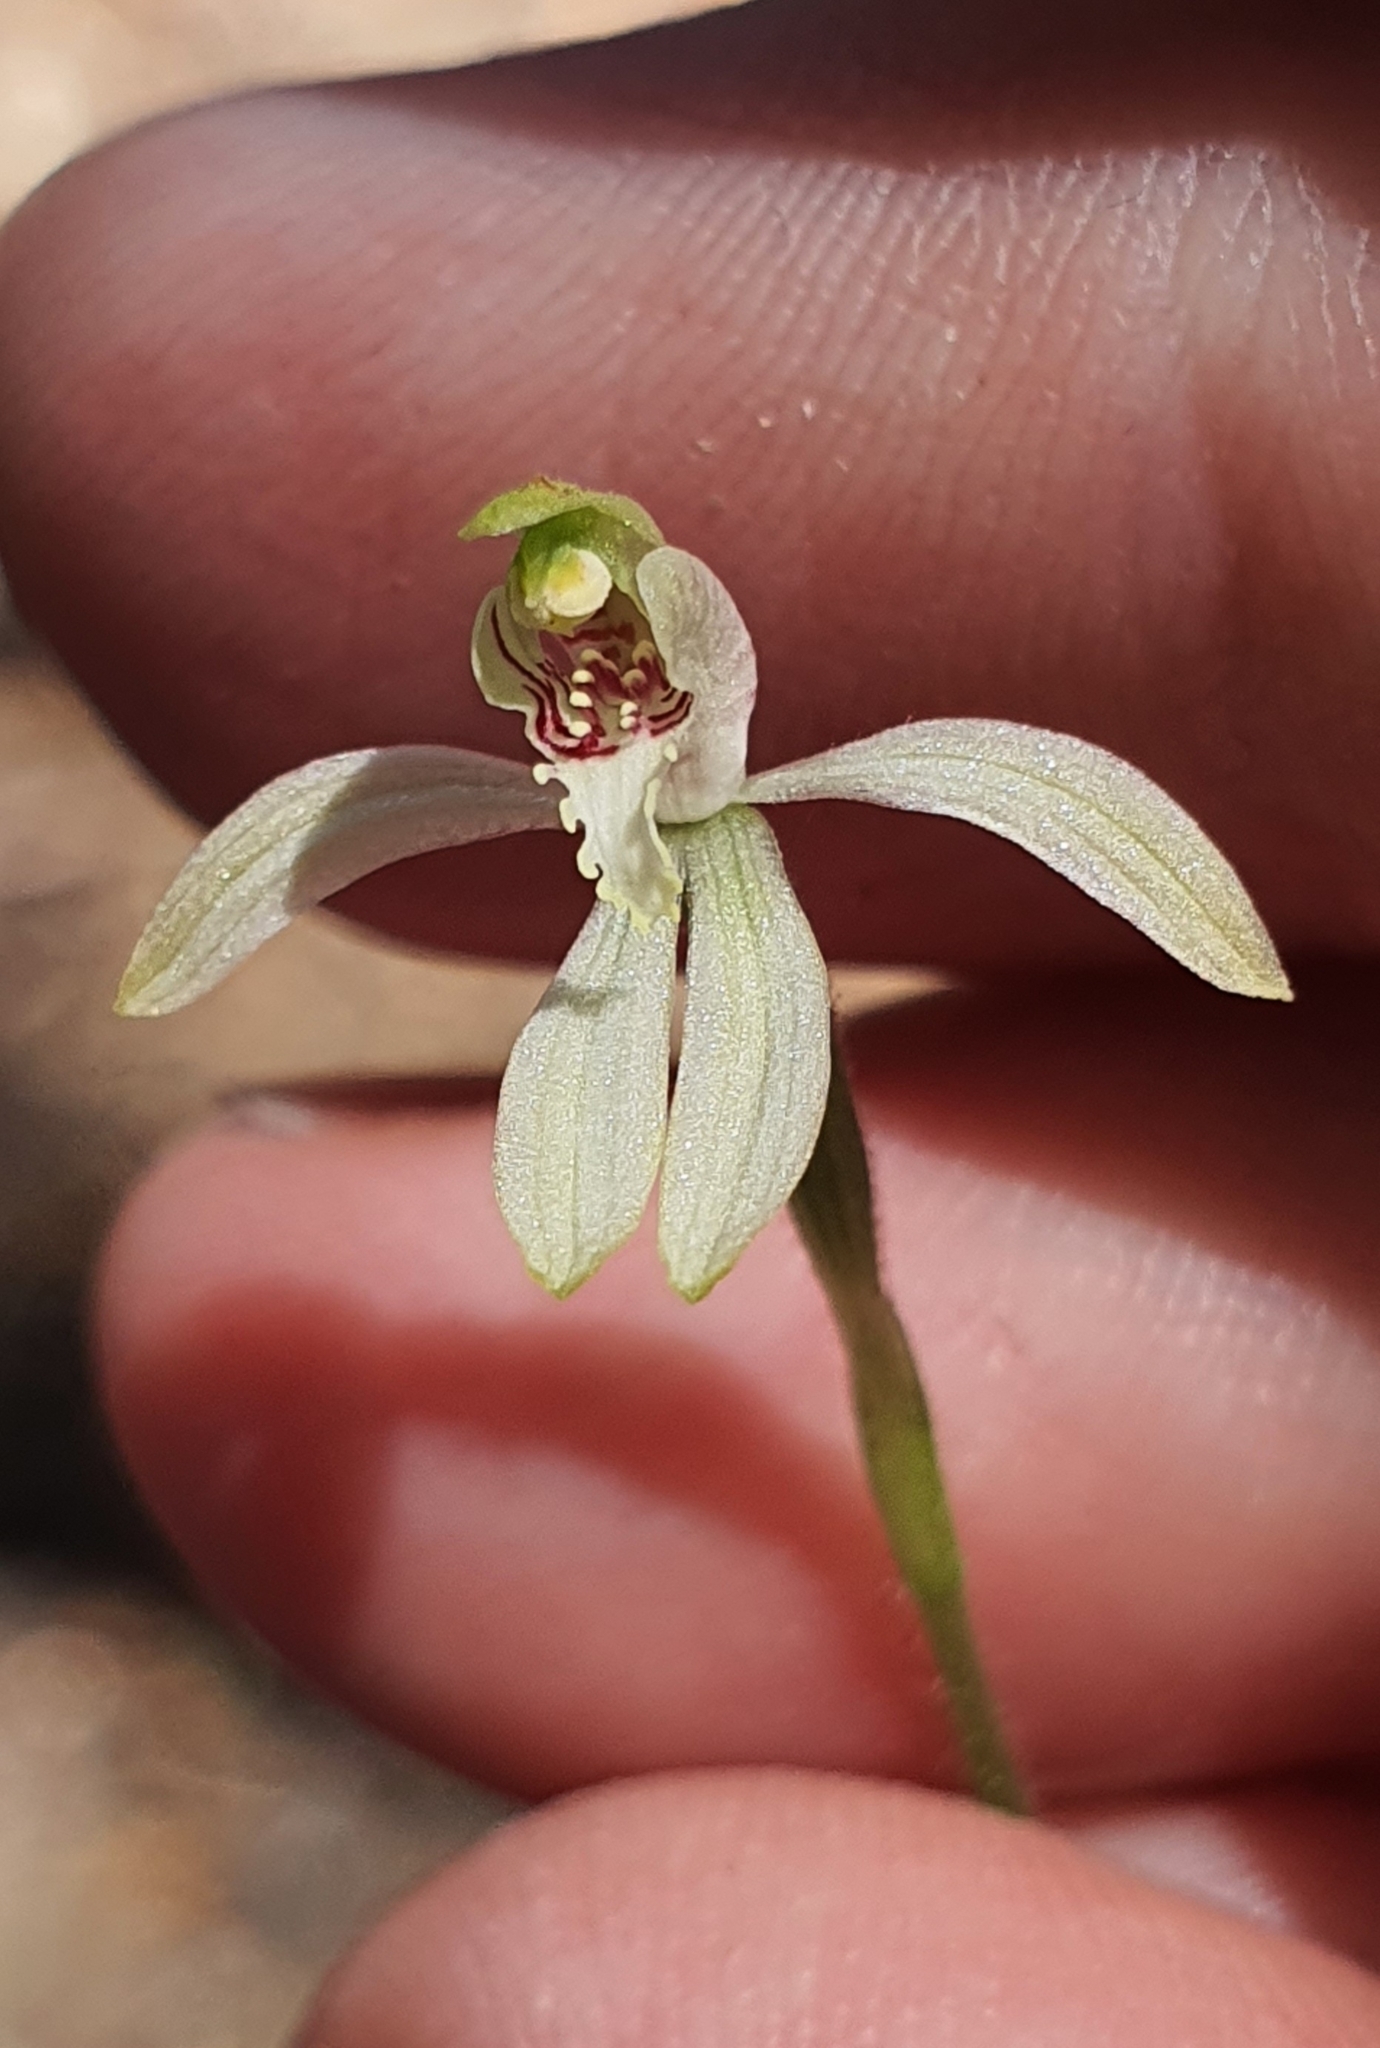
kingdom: Plantae
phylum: Tracheophyta
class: Liliopsida
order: Asparagales
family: Orchidaceae
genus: Caladenia
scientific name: Caladenia chlorostyla
